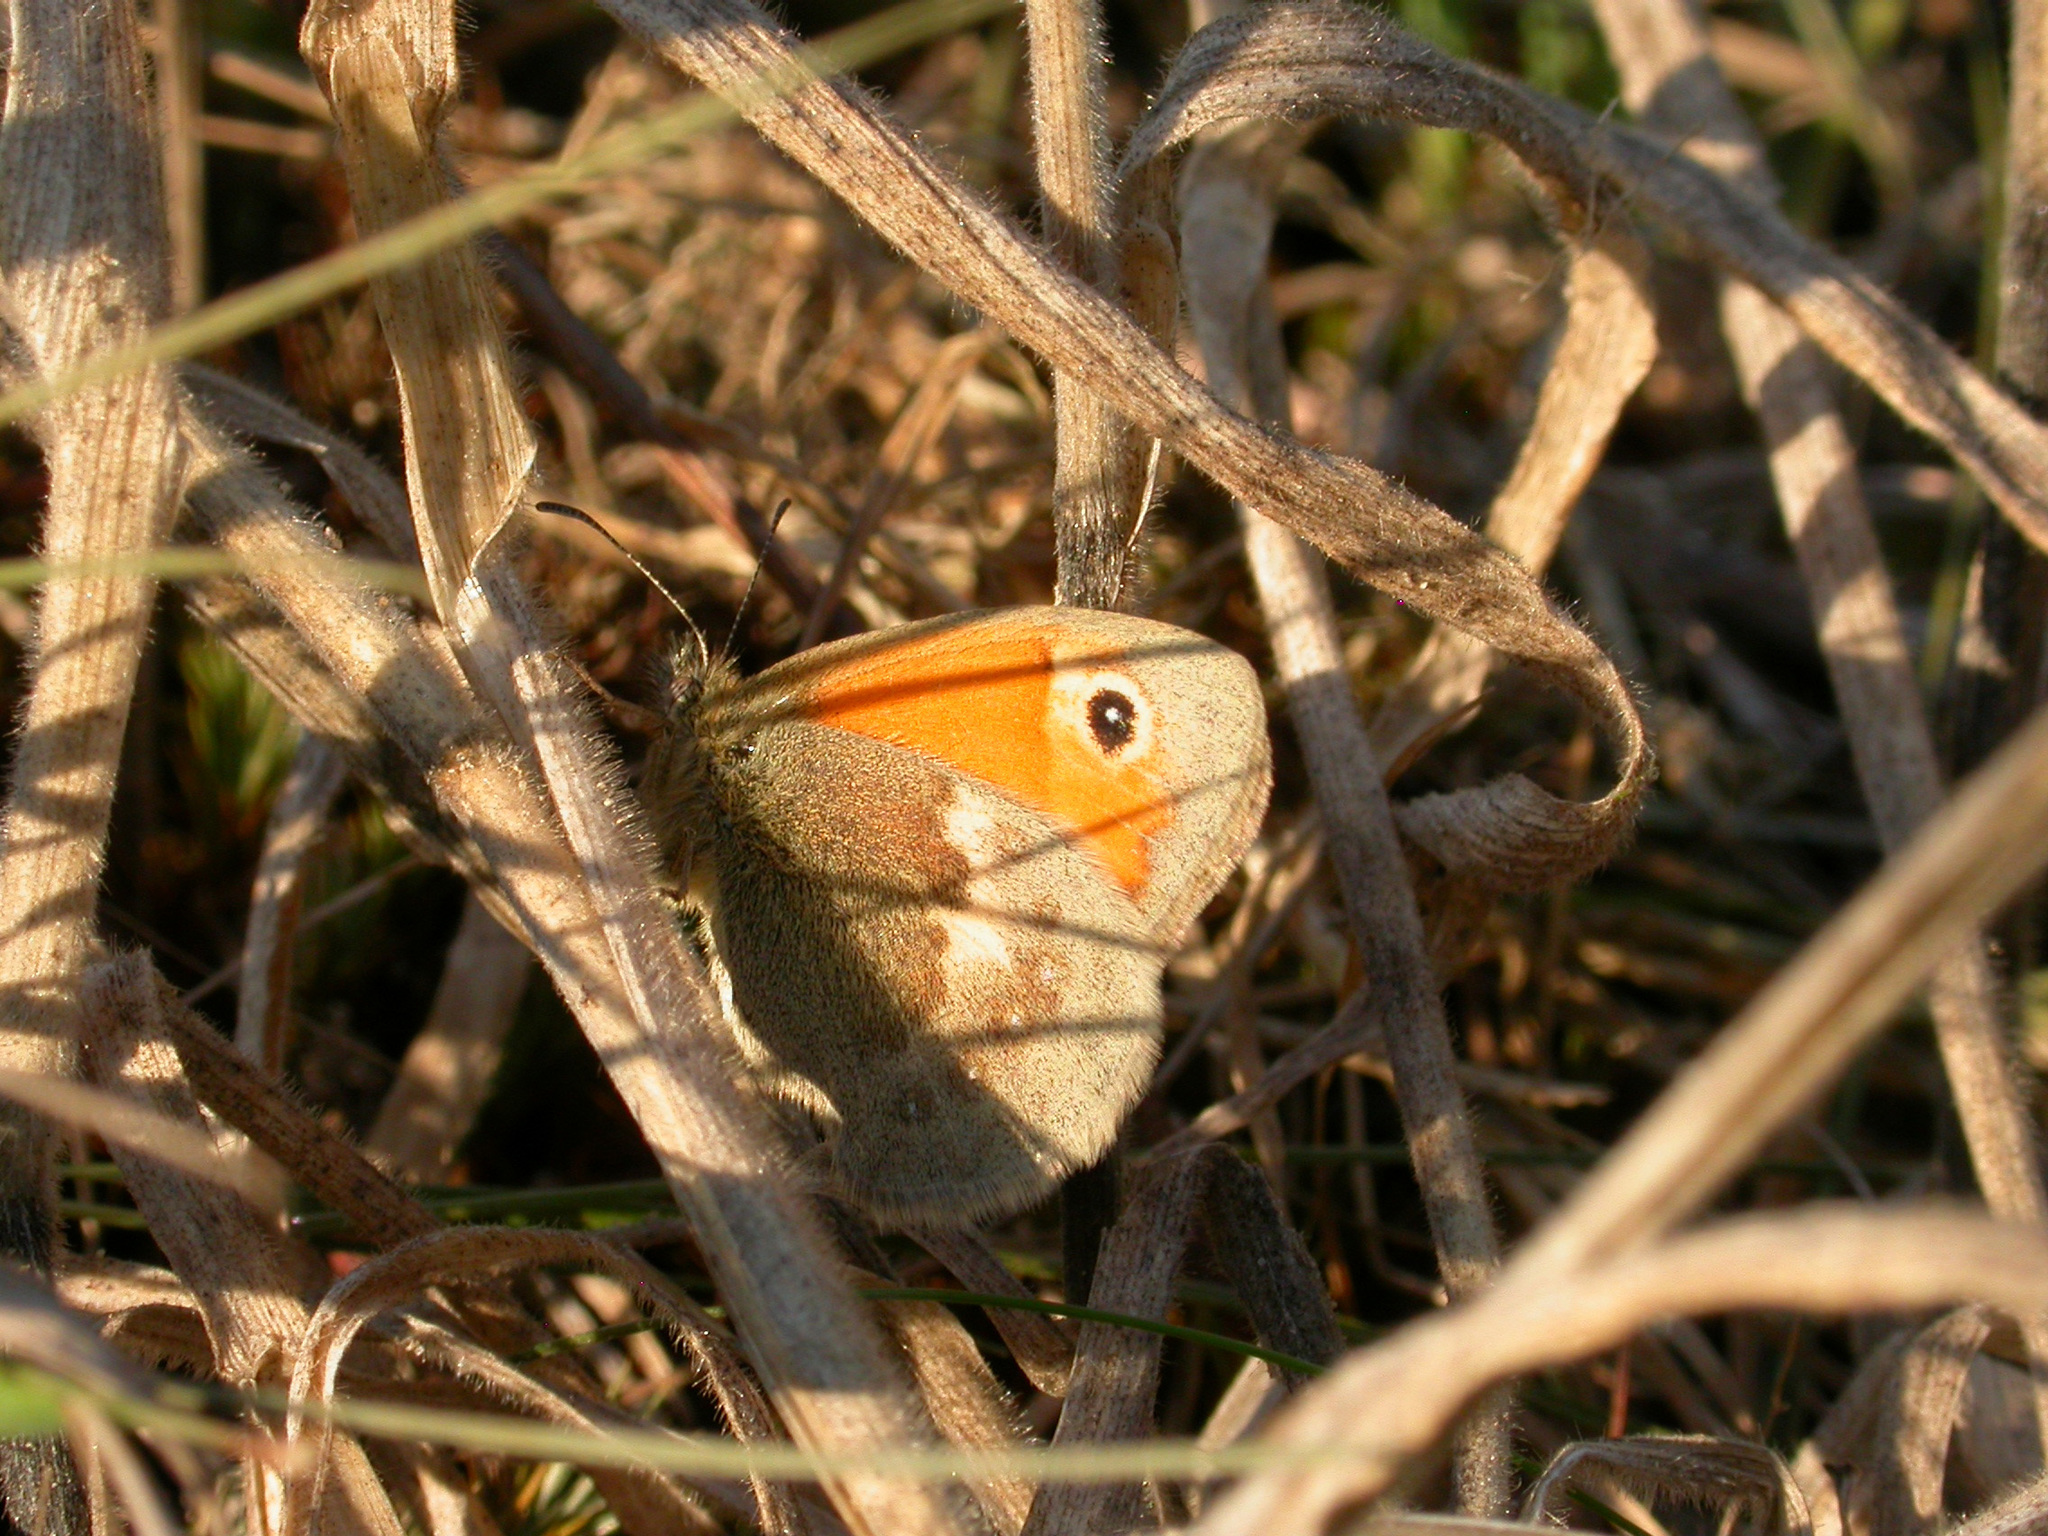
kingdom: Animalia
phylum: Arthropoda
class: Insecta
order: Lepidoptera
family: Nymphalidae
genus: Coenonympha
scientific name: Coenonympha pamphilus
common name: Small heath
